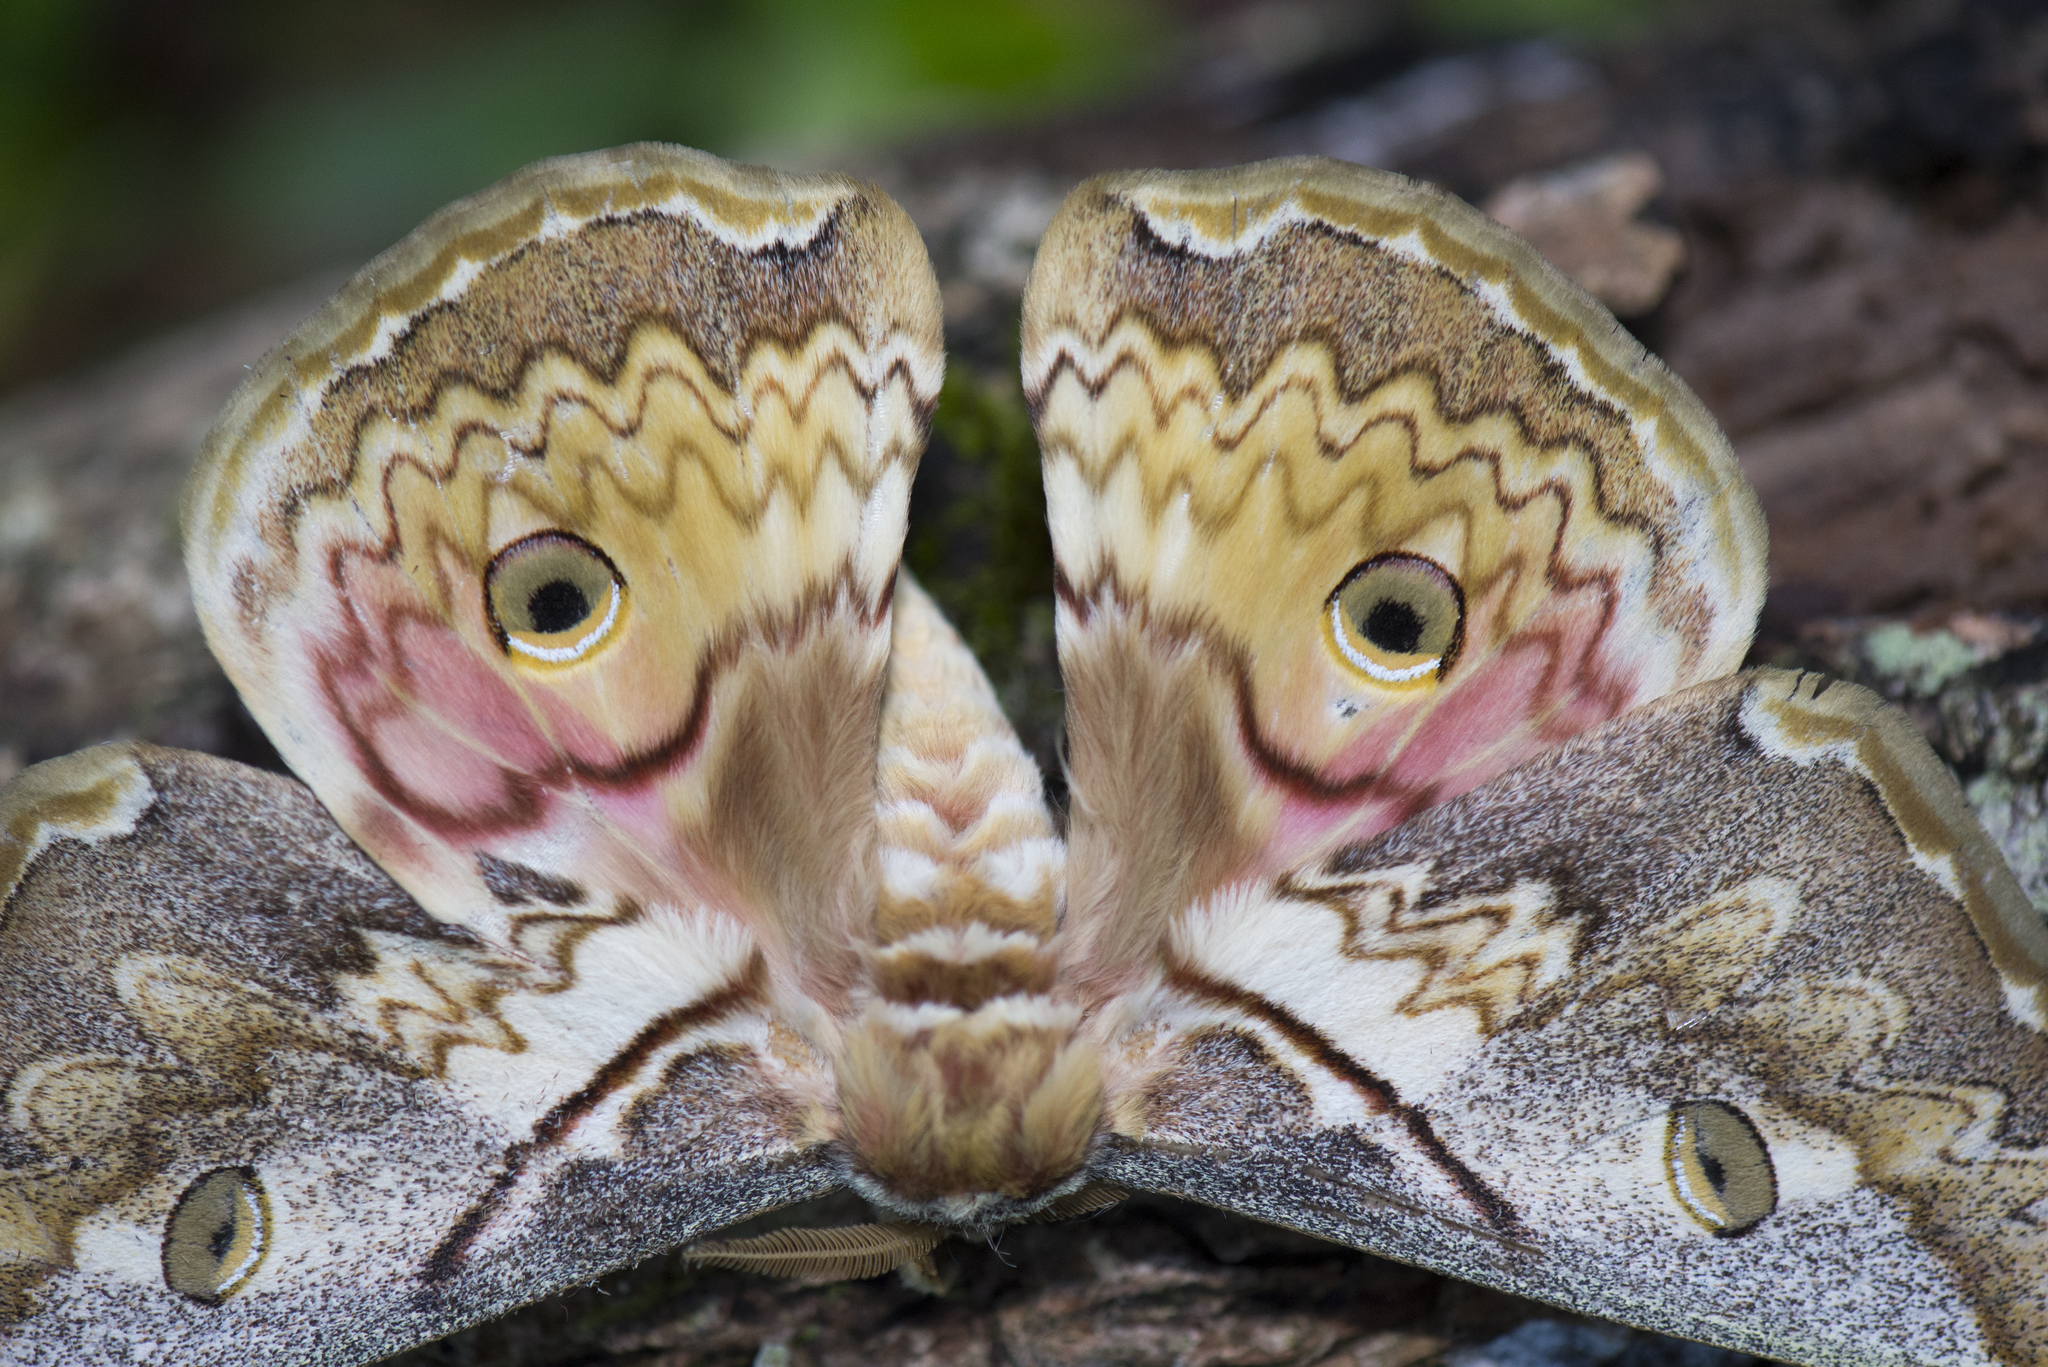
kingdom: Animalia
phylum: Arthropoda
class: Insecta
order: Lepidoptera
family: Saturniidae
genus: Rinaca
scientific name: Rinaca thibeta
